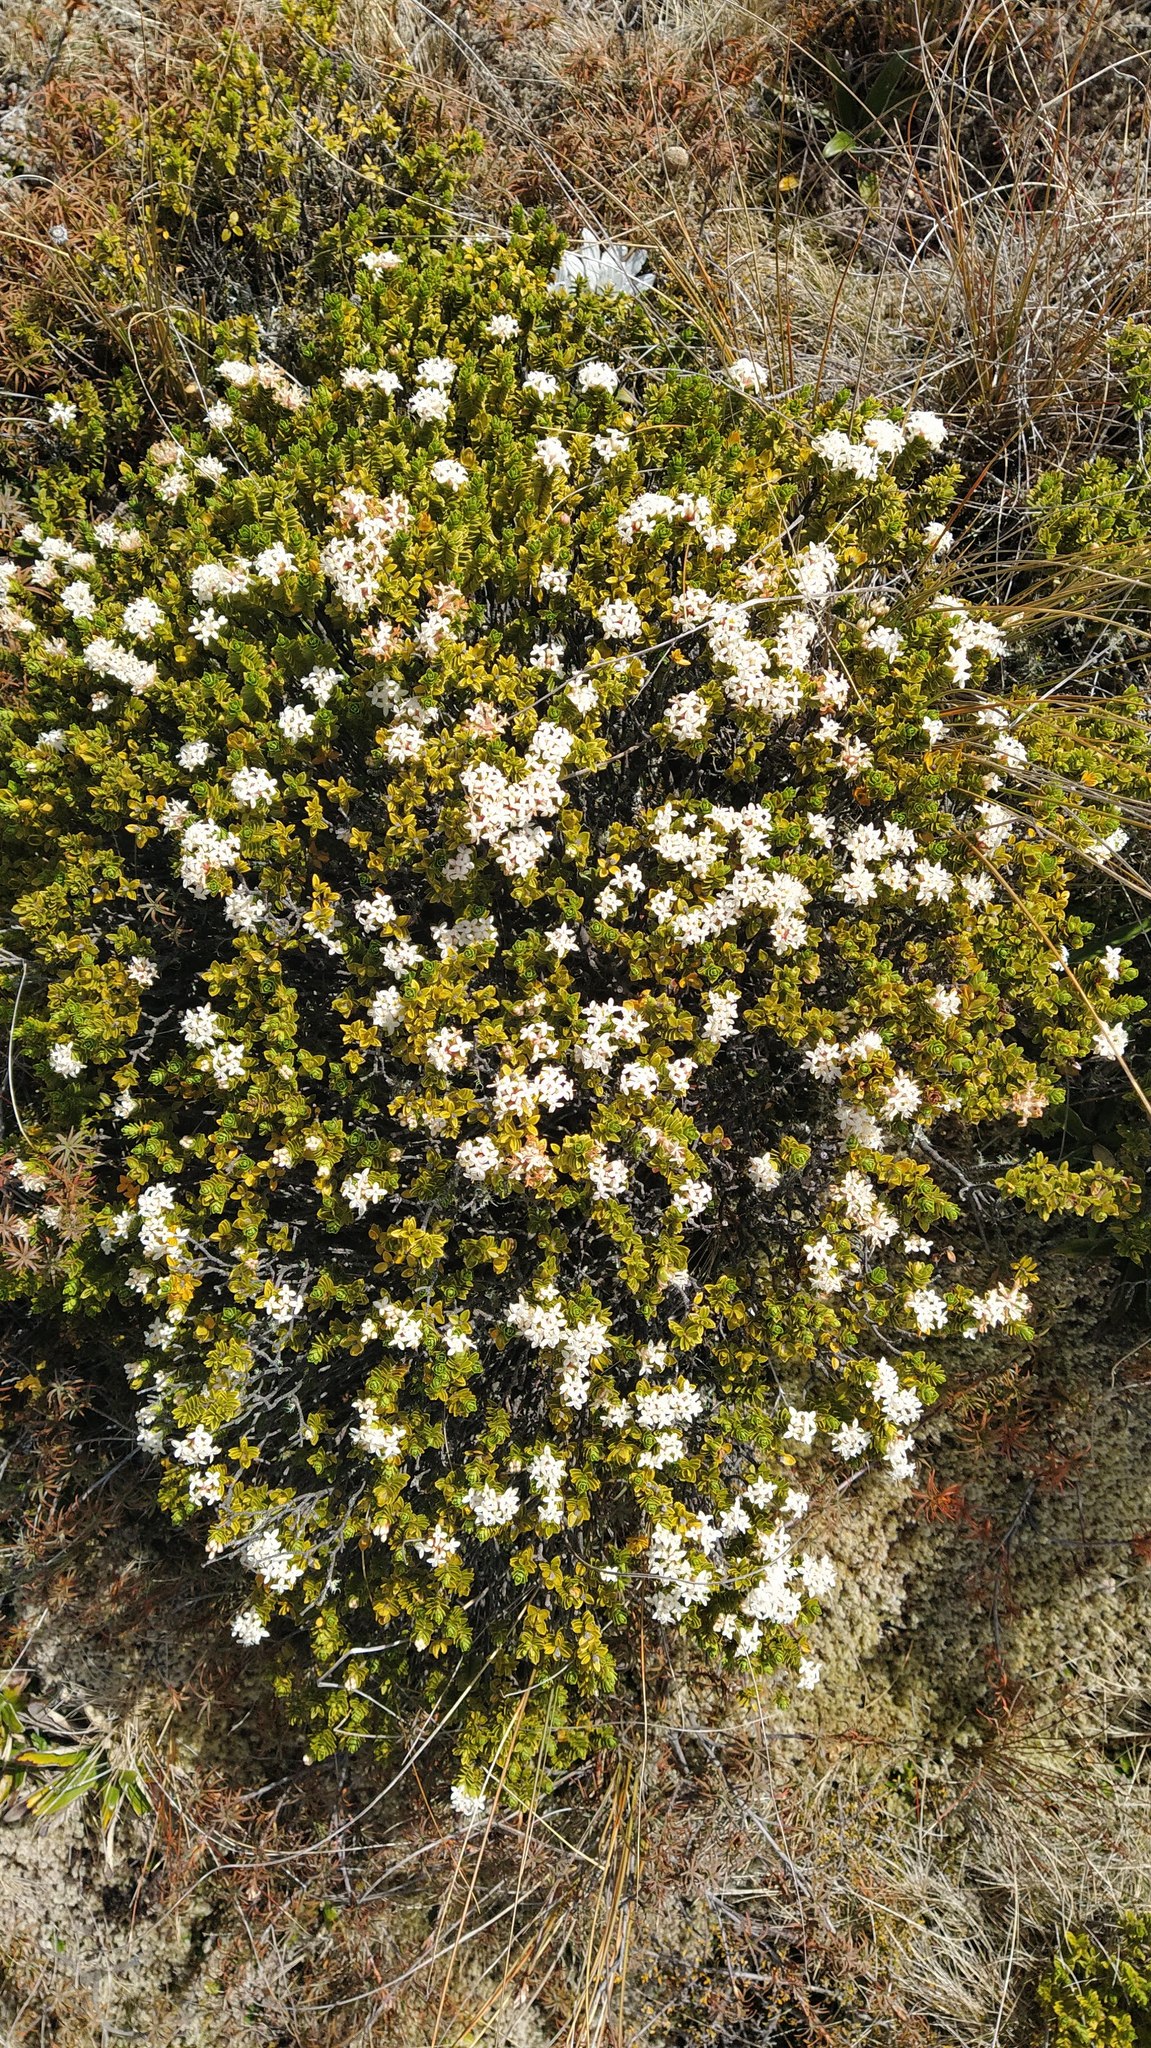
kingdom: Plantae
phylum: Tracheophyta
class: Magnoliopsida
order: Malvales
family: Thymelaeaceae
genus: Pimelea
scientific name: Pimelea buxifolia
